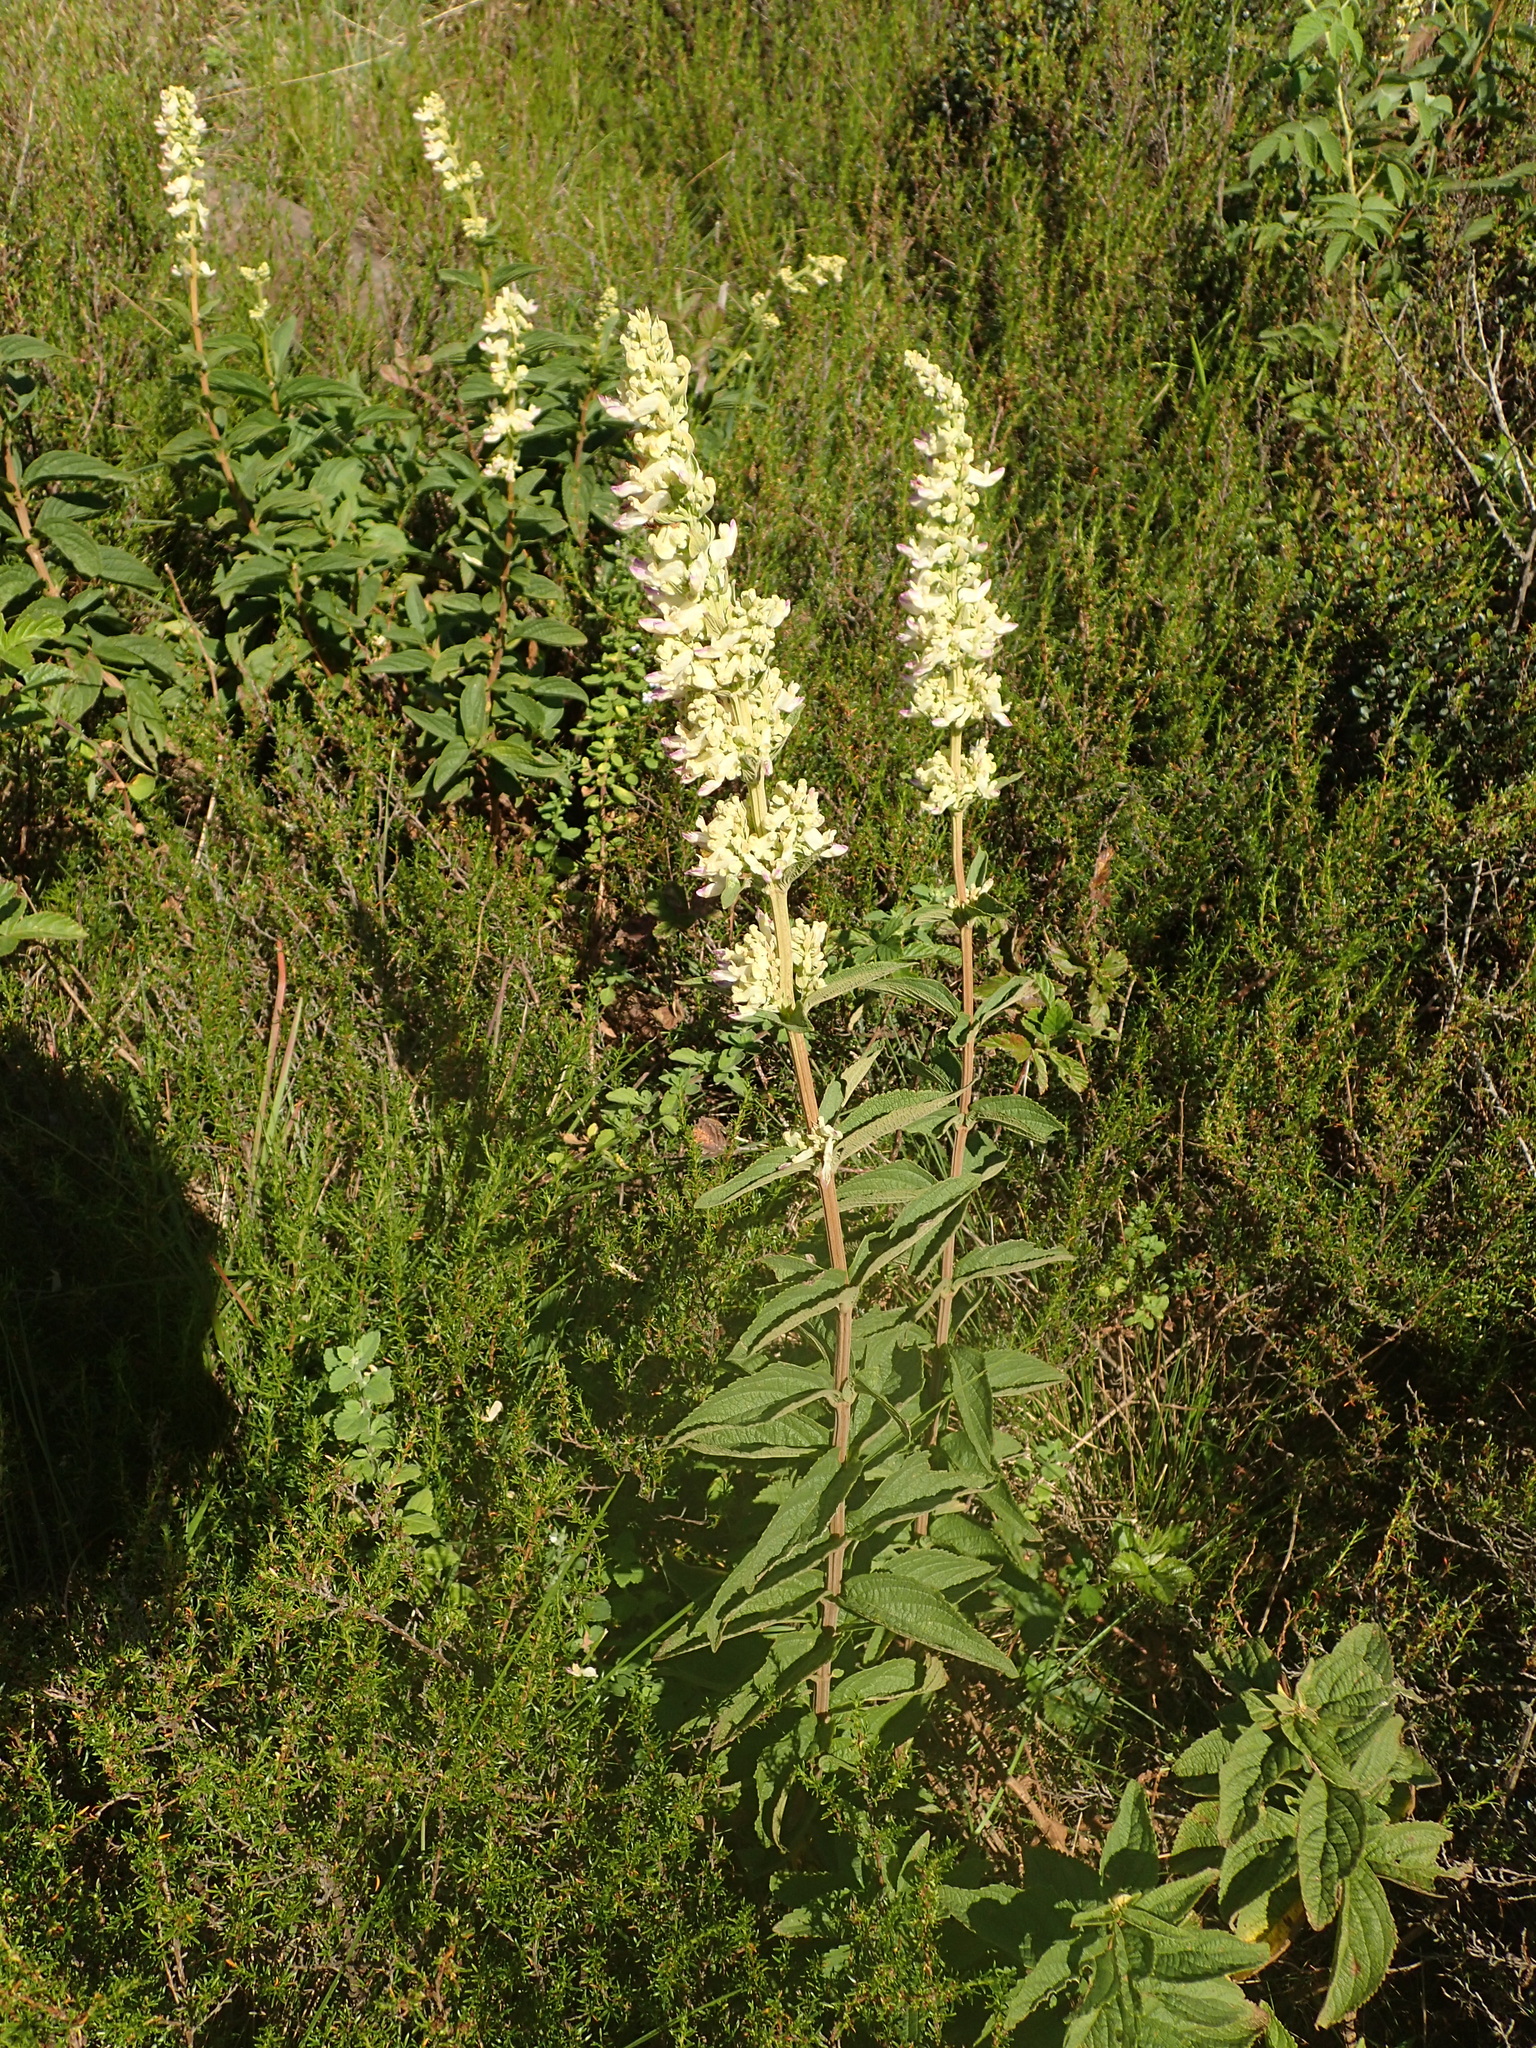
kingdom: Plantae
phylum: Tracheophyta
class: Magnoliopsida
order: Lamiales
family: Lamiaceae
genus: Coleus
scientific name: Coleus calycinus
